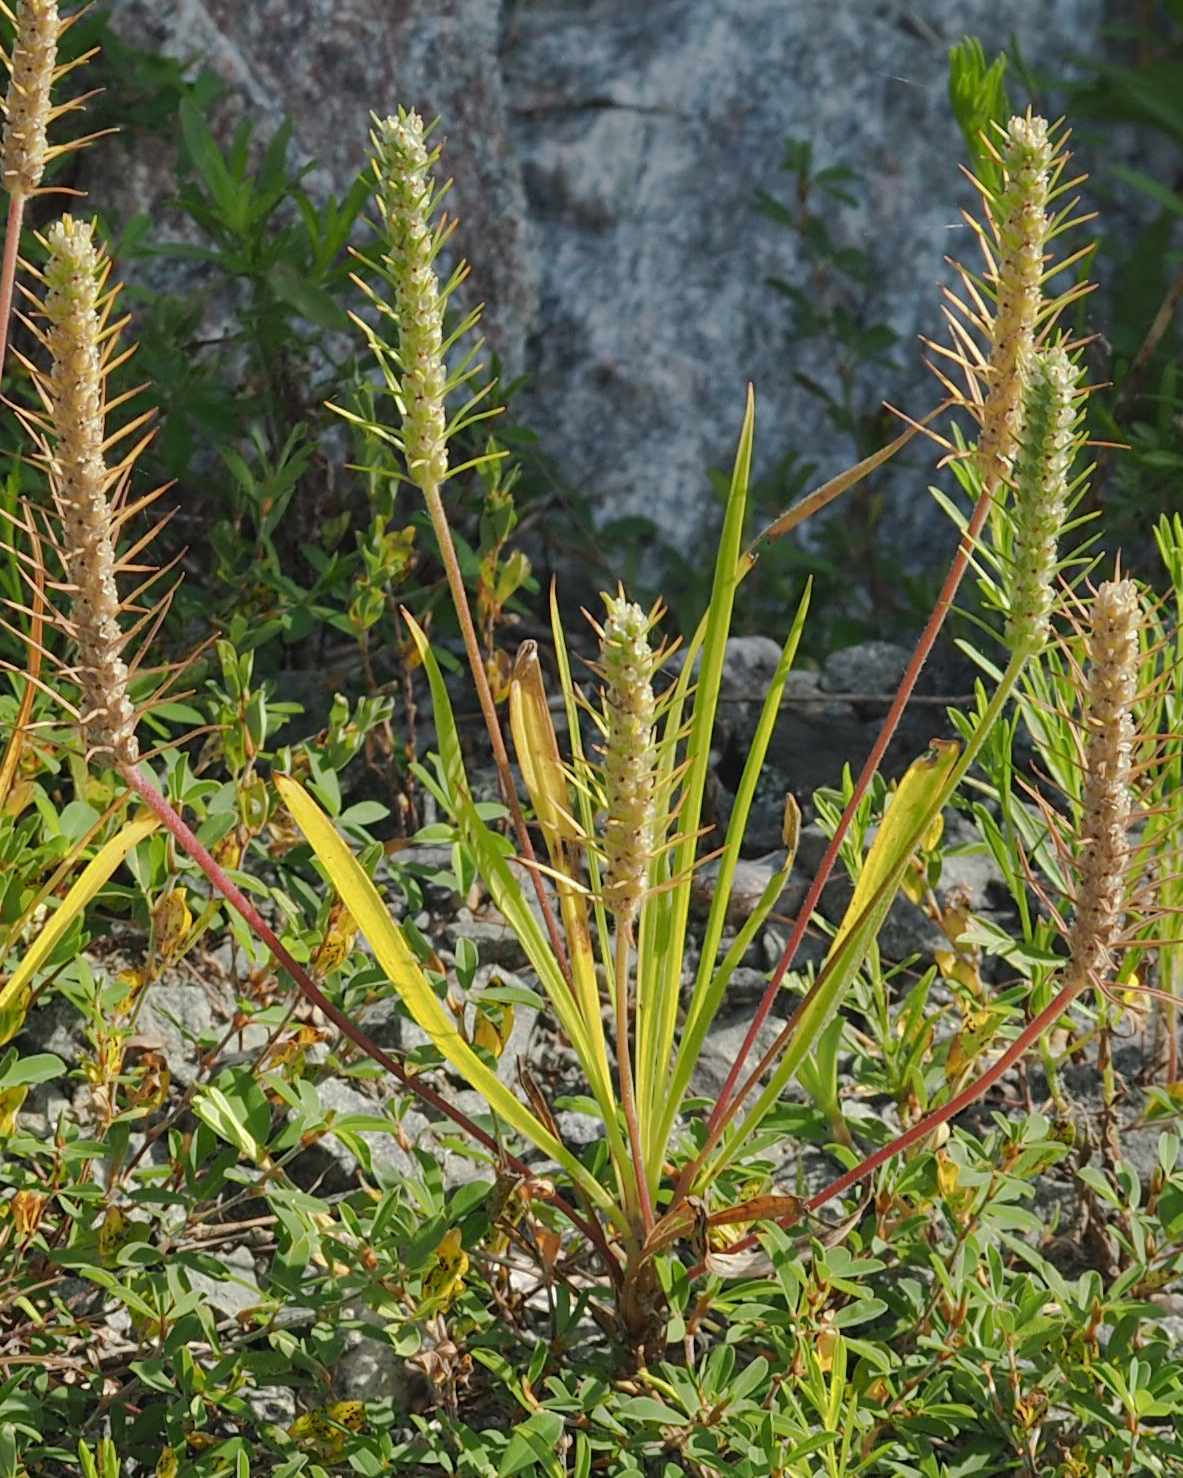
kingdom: Plantae
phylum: Tracheophyta
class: Magnoliopsida
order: Lamiales
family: Plantaginaceae
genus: Plantago
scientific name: Plantago aristata
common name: Bracted plantain
